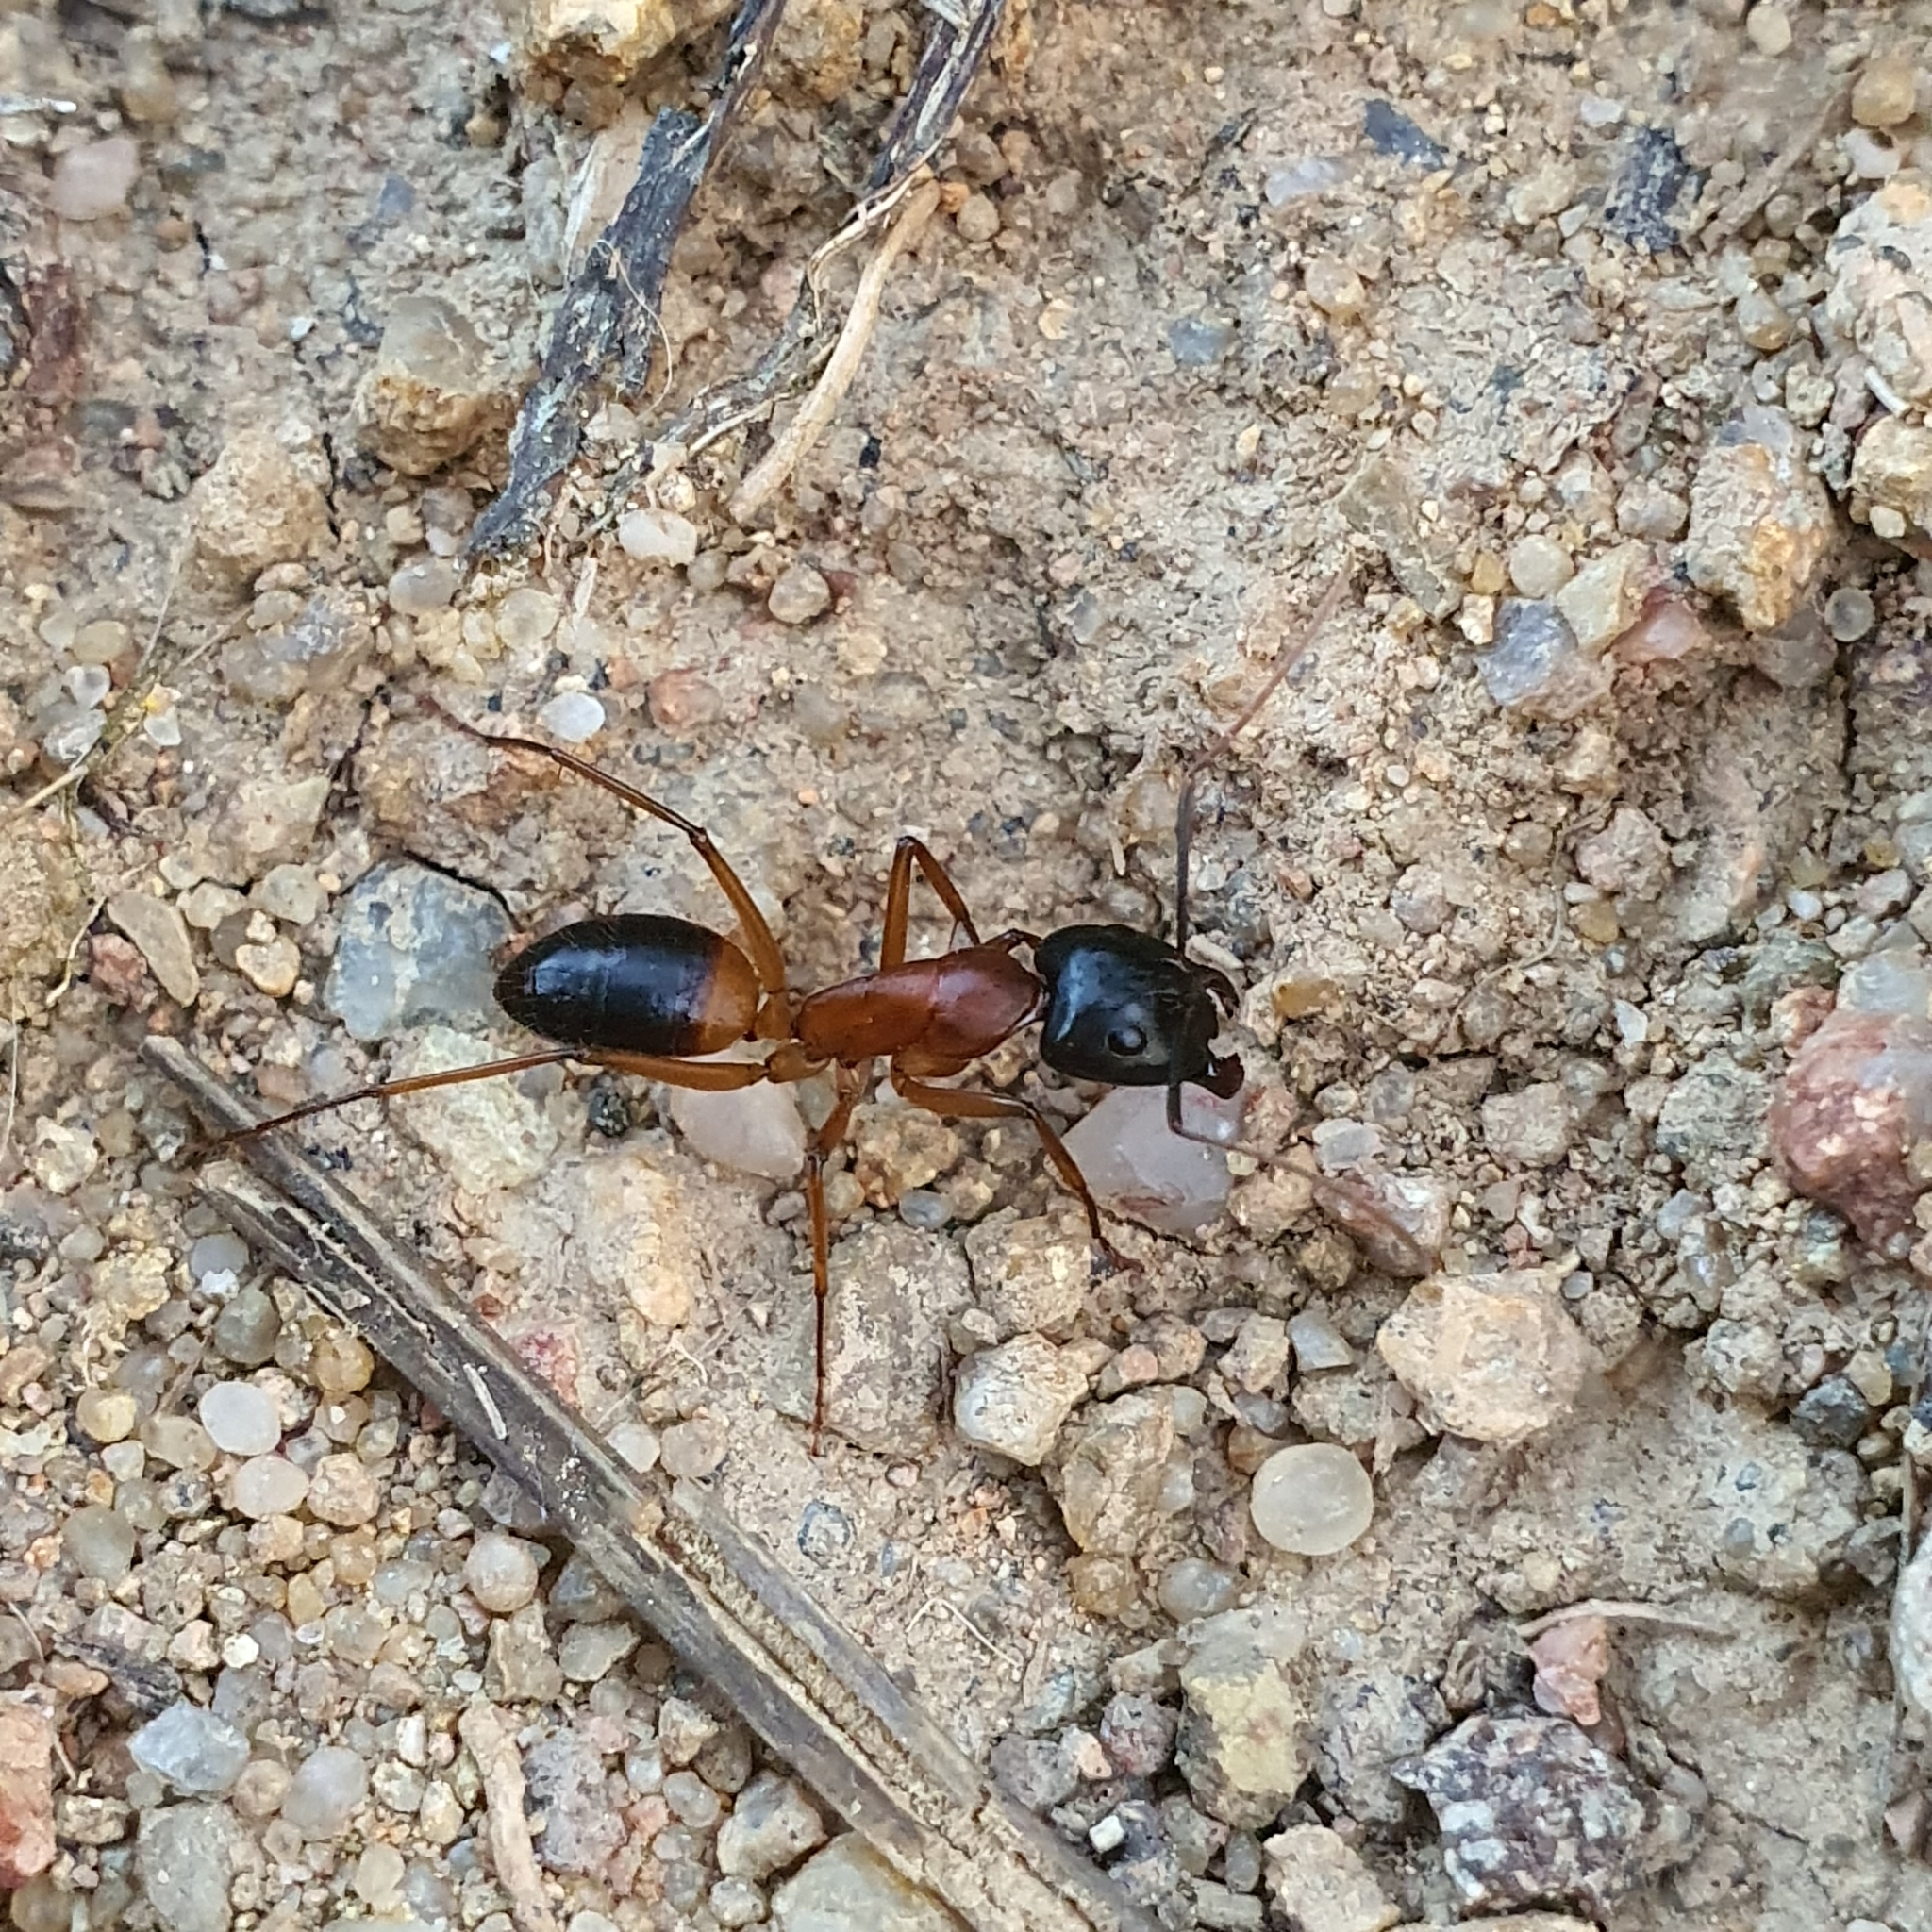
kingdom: Animalia
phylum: Arthropoda
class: Insecta
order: Hymenoptera
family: Formicidae
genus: Camponotus
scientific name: Camponotus consobrinus
